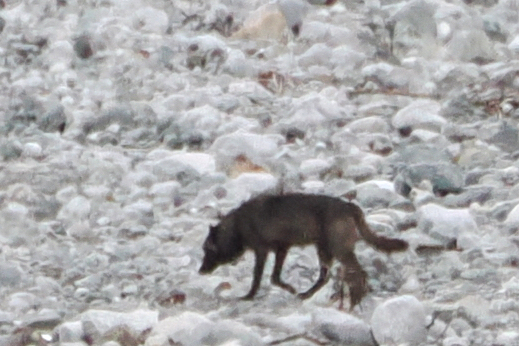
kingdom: Animalia
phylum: Chordata
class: Mammalia
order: Carnivora
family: Canidae
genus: Canis
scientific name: Canis lupus
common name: Gray wolf
